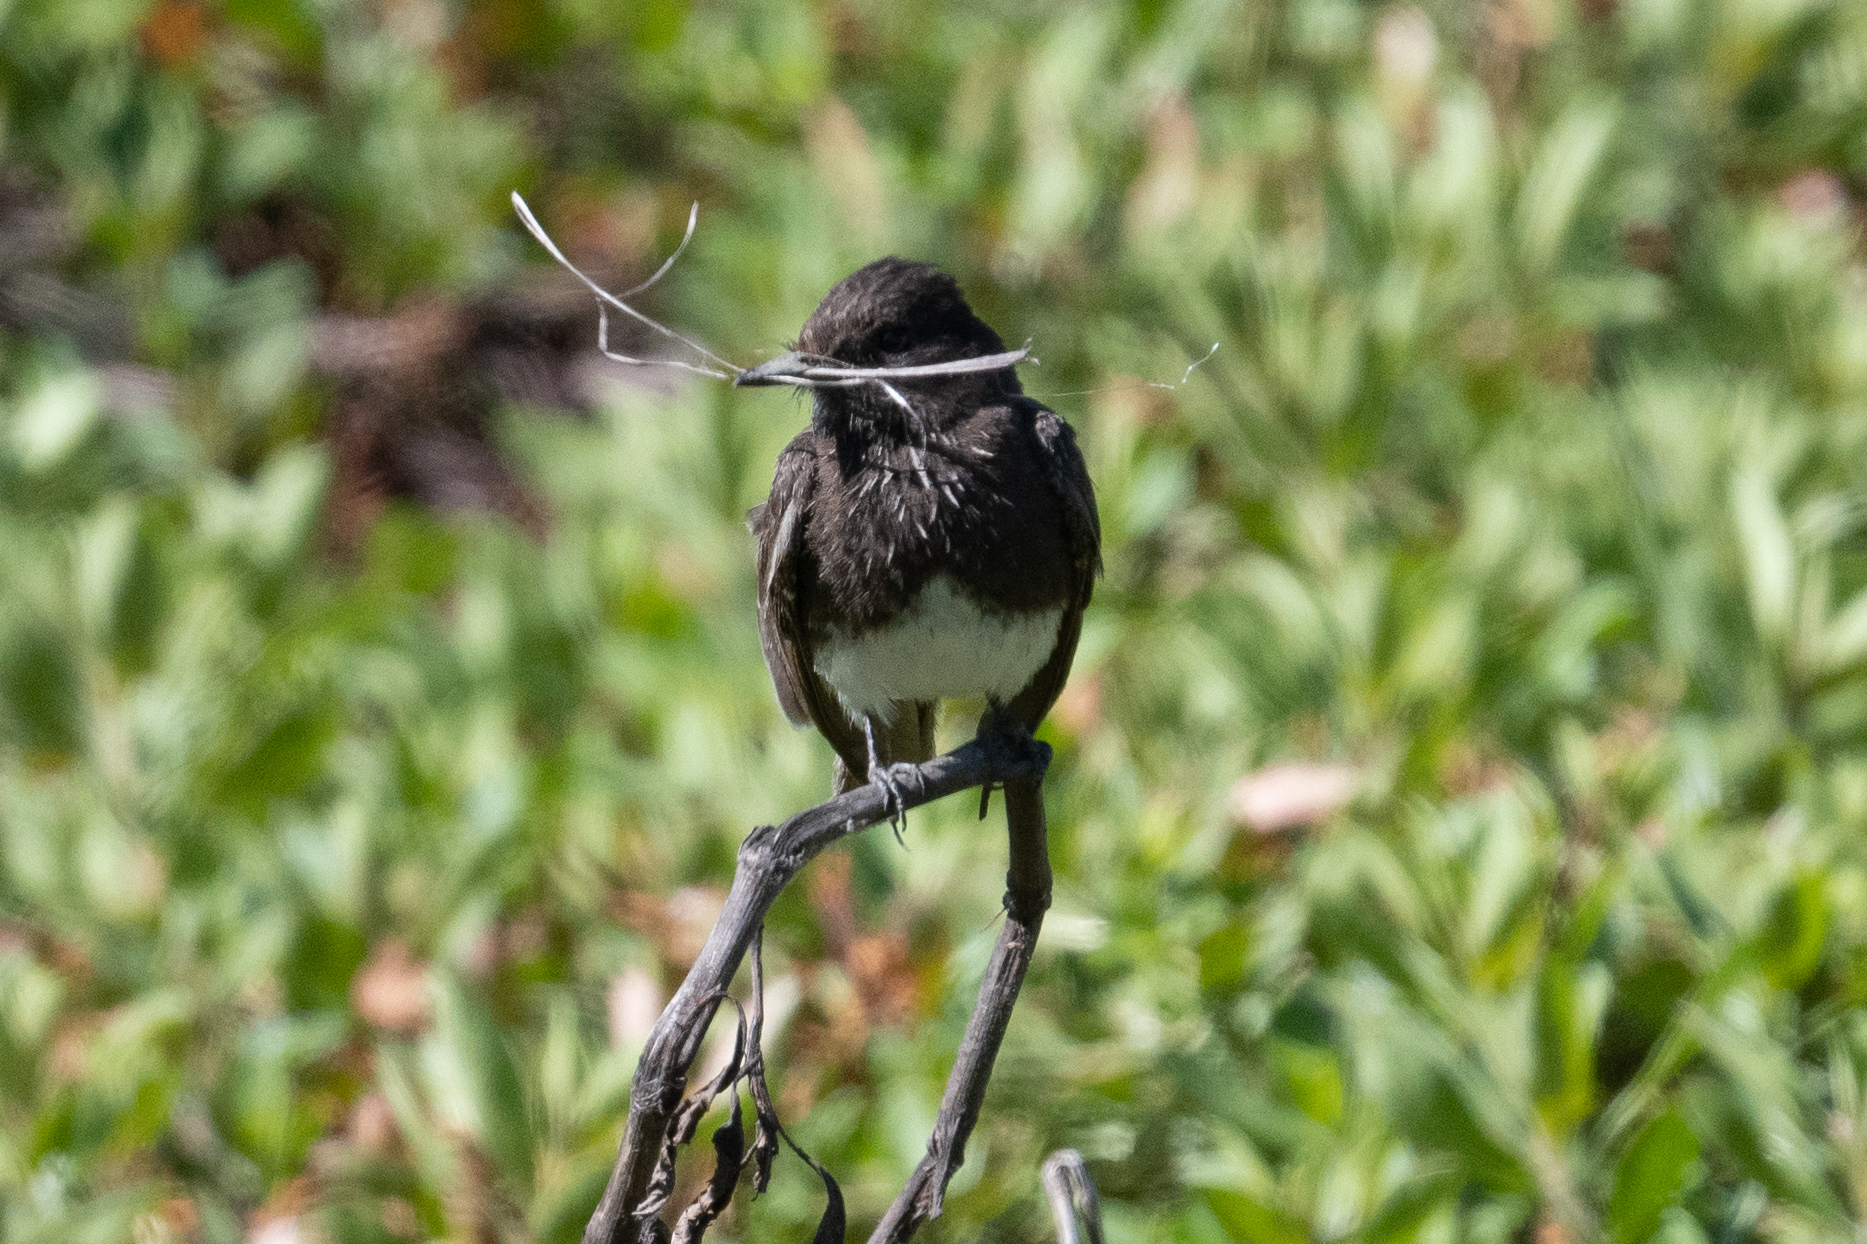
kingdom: Animalia
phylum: Chordata
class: Aves
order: Passeriformes
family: Tyrannidae
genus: Sayornis
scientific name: Sayornis nigricans
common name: Black phoebe
